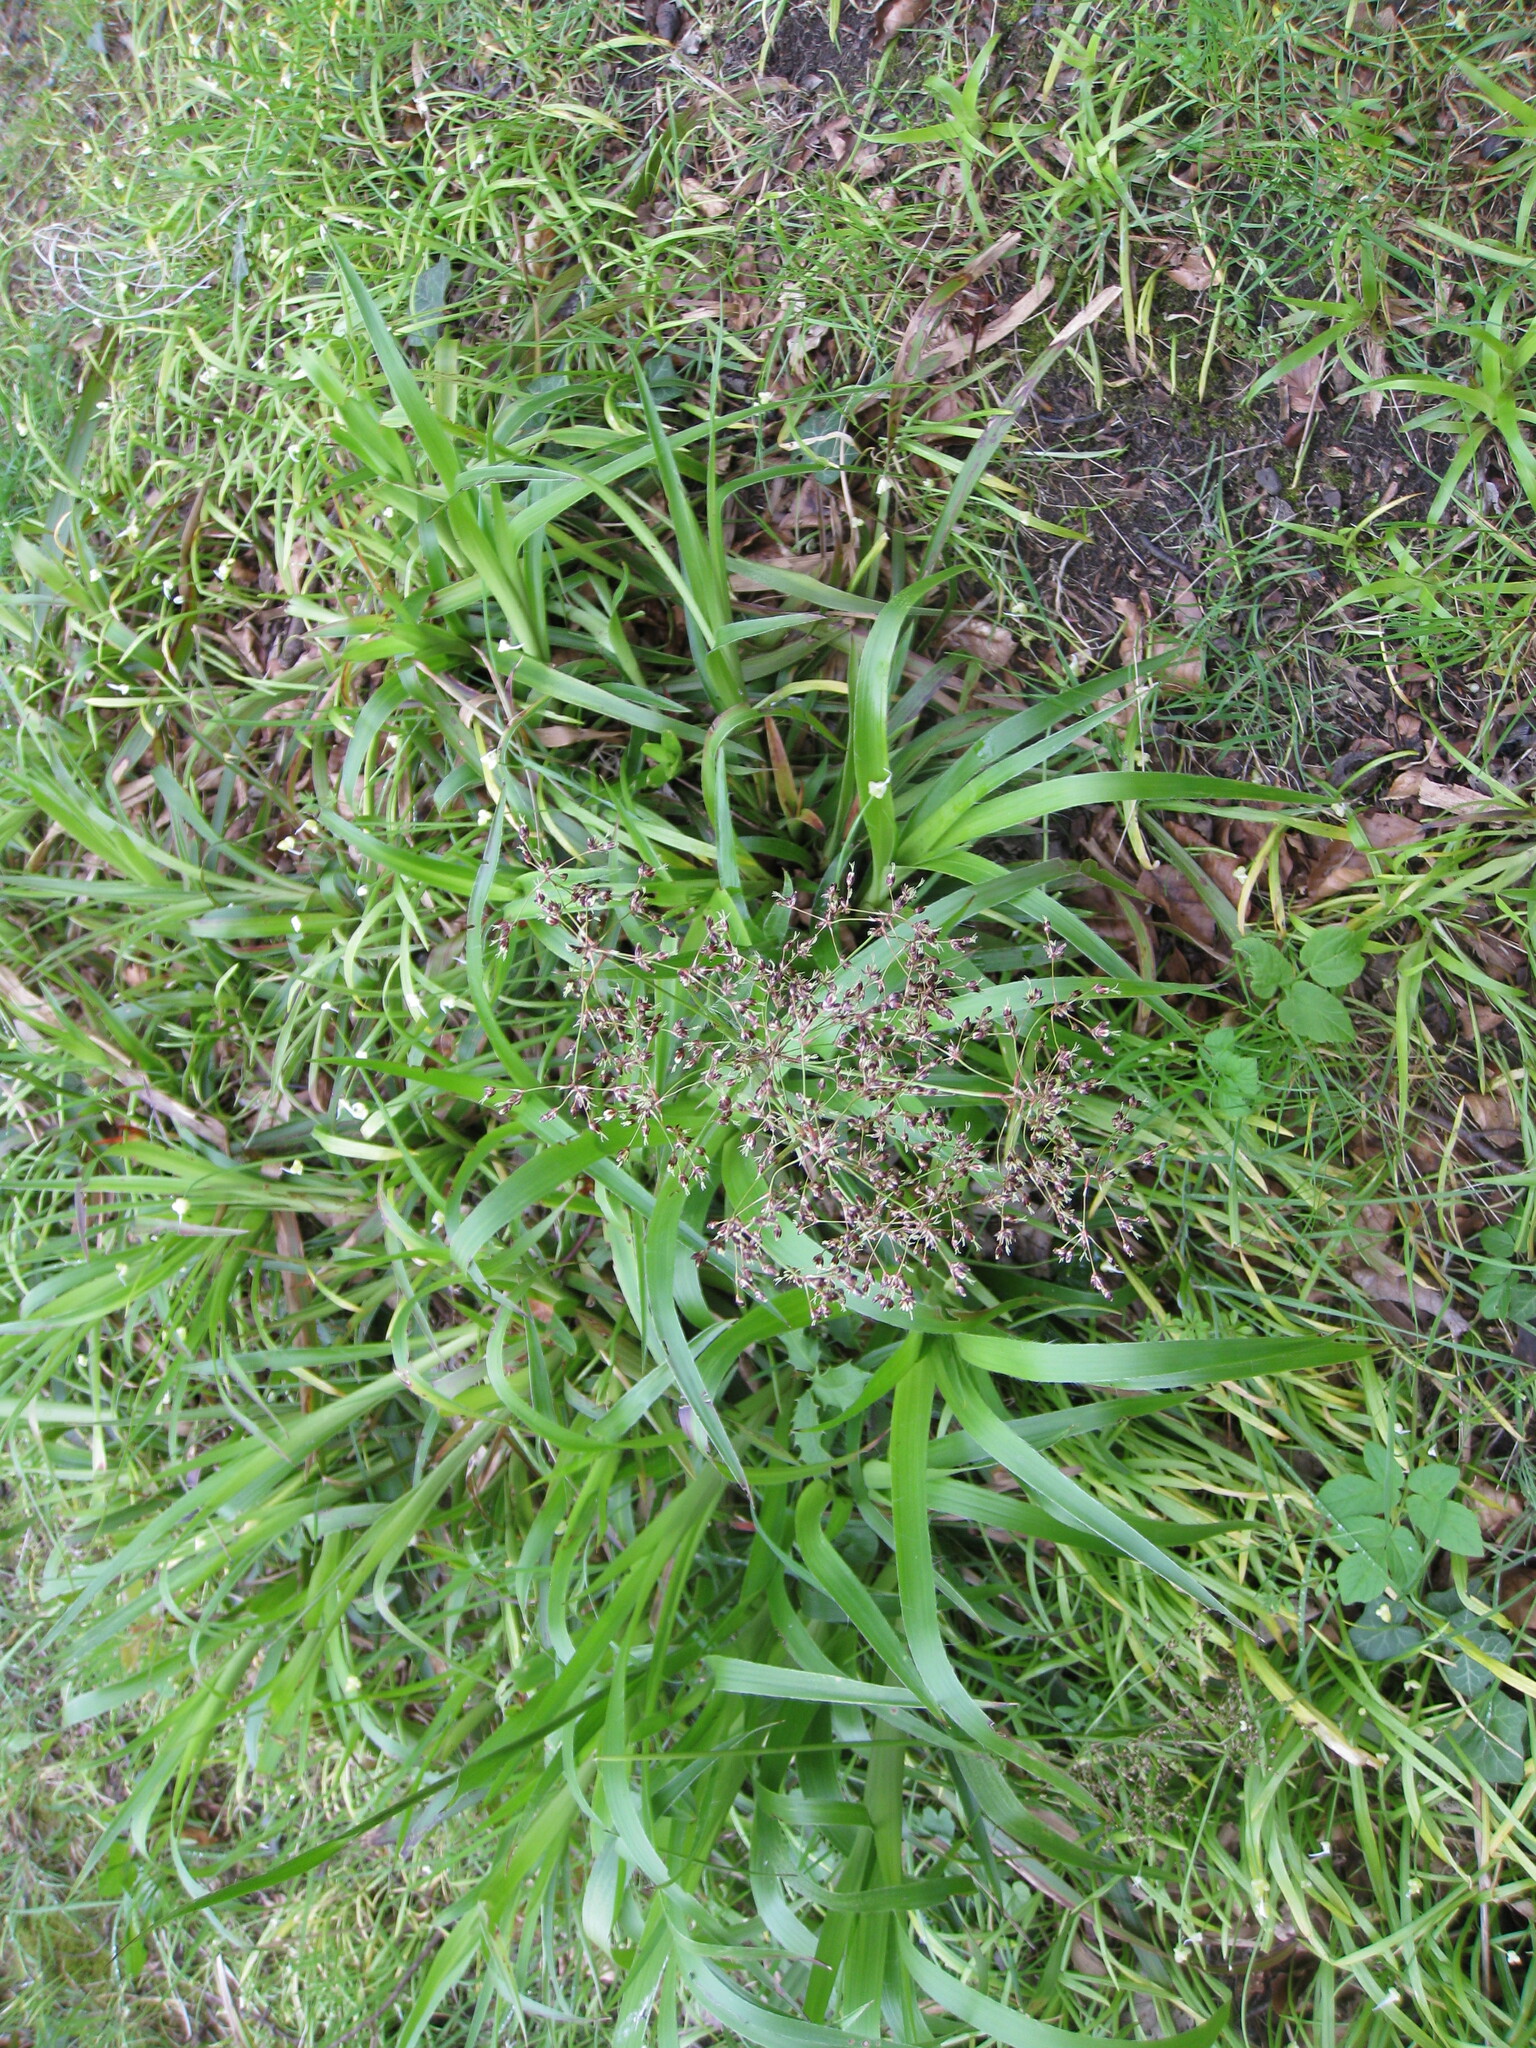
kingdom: Plantae
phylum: Tracheophyta
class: Liliopsida
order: Poales
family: Juncaceae
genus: Luzula
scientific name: Luzula sylvatica
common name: Great wood-rush
